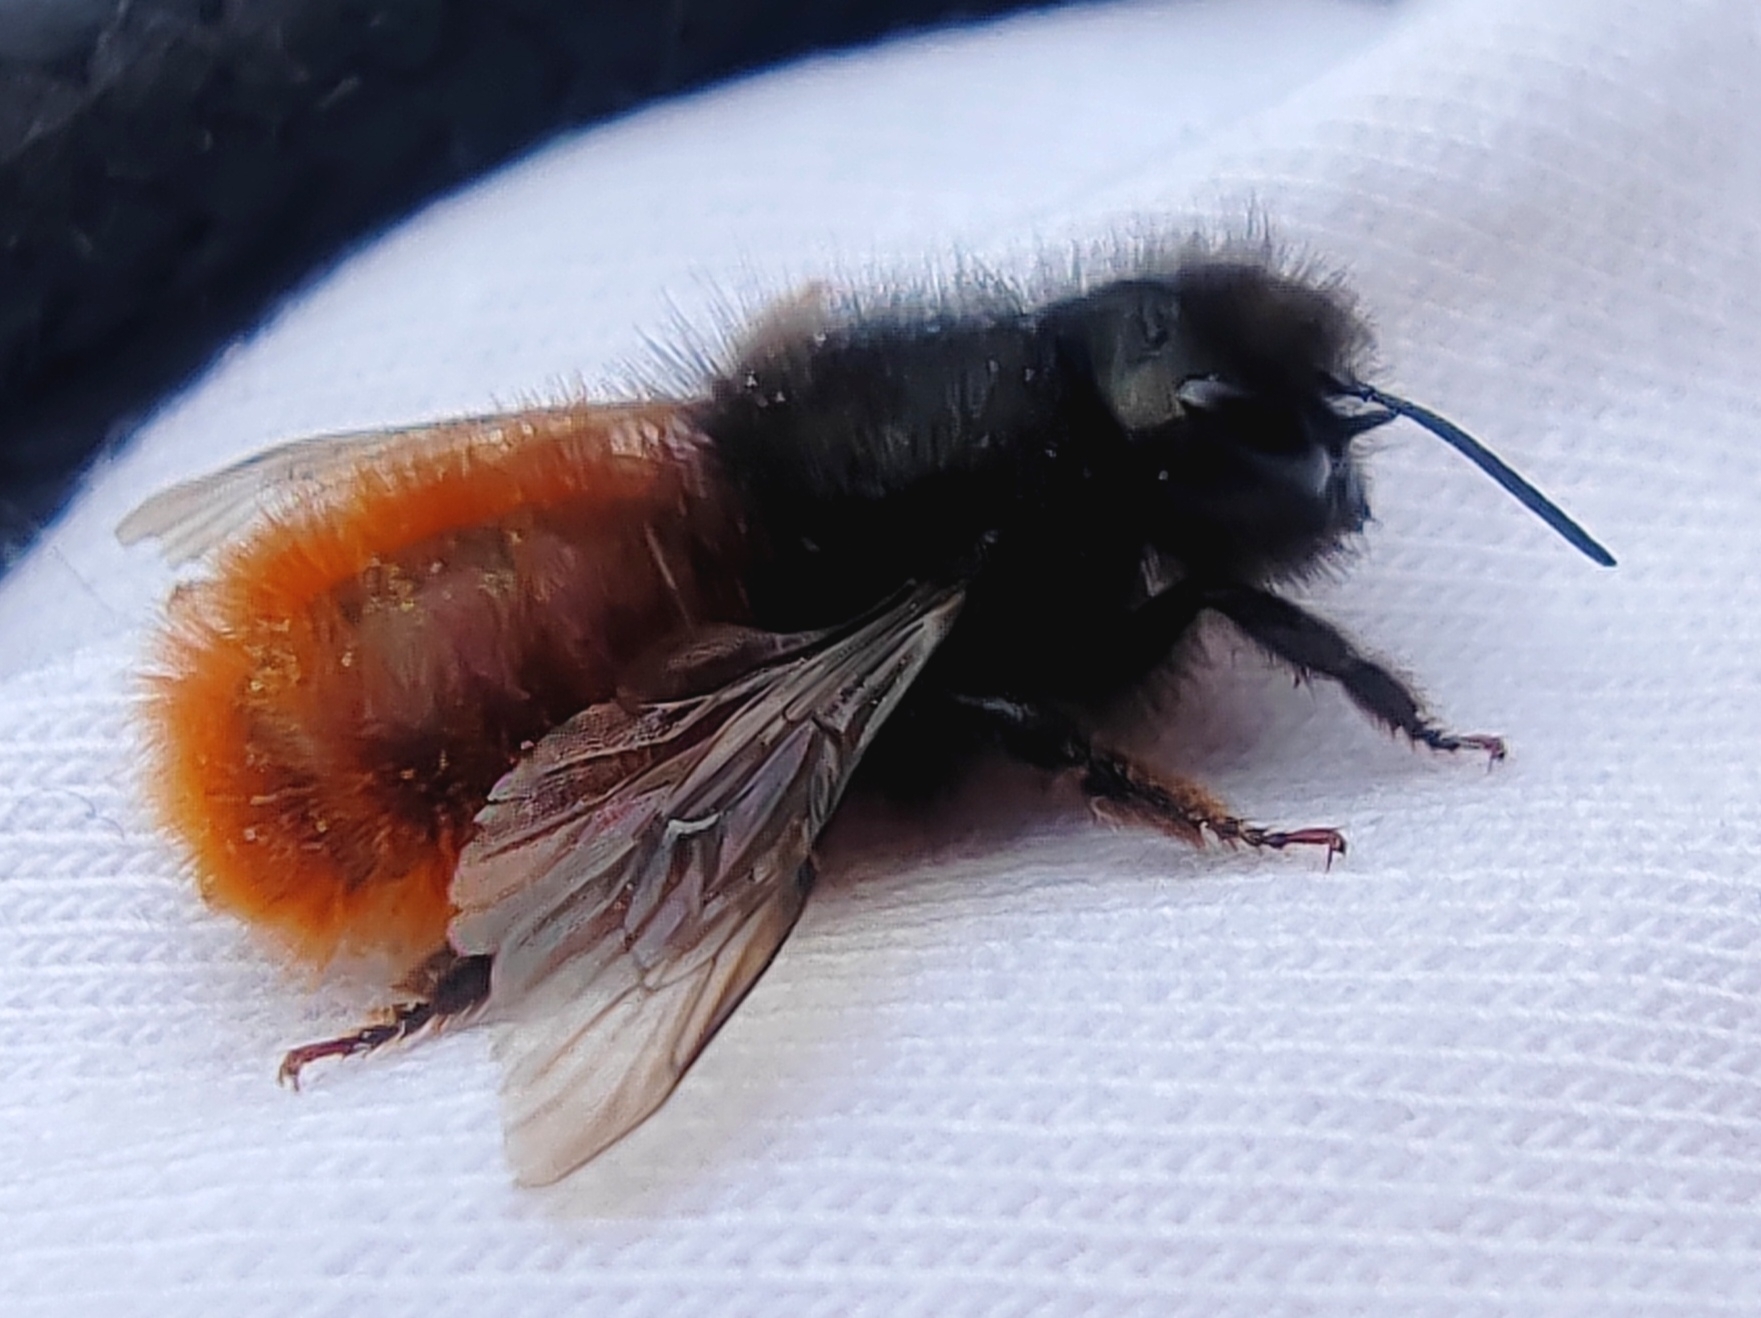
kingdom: Animalia
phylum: Arthropoda
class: Insecta
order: Hymenoptera
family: Megachilidae
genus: Osmia
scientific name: Osmia cornuta
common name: Mason bee
